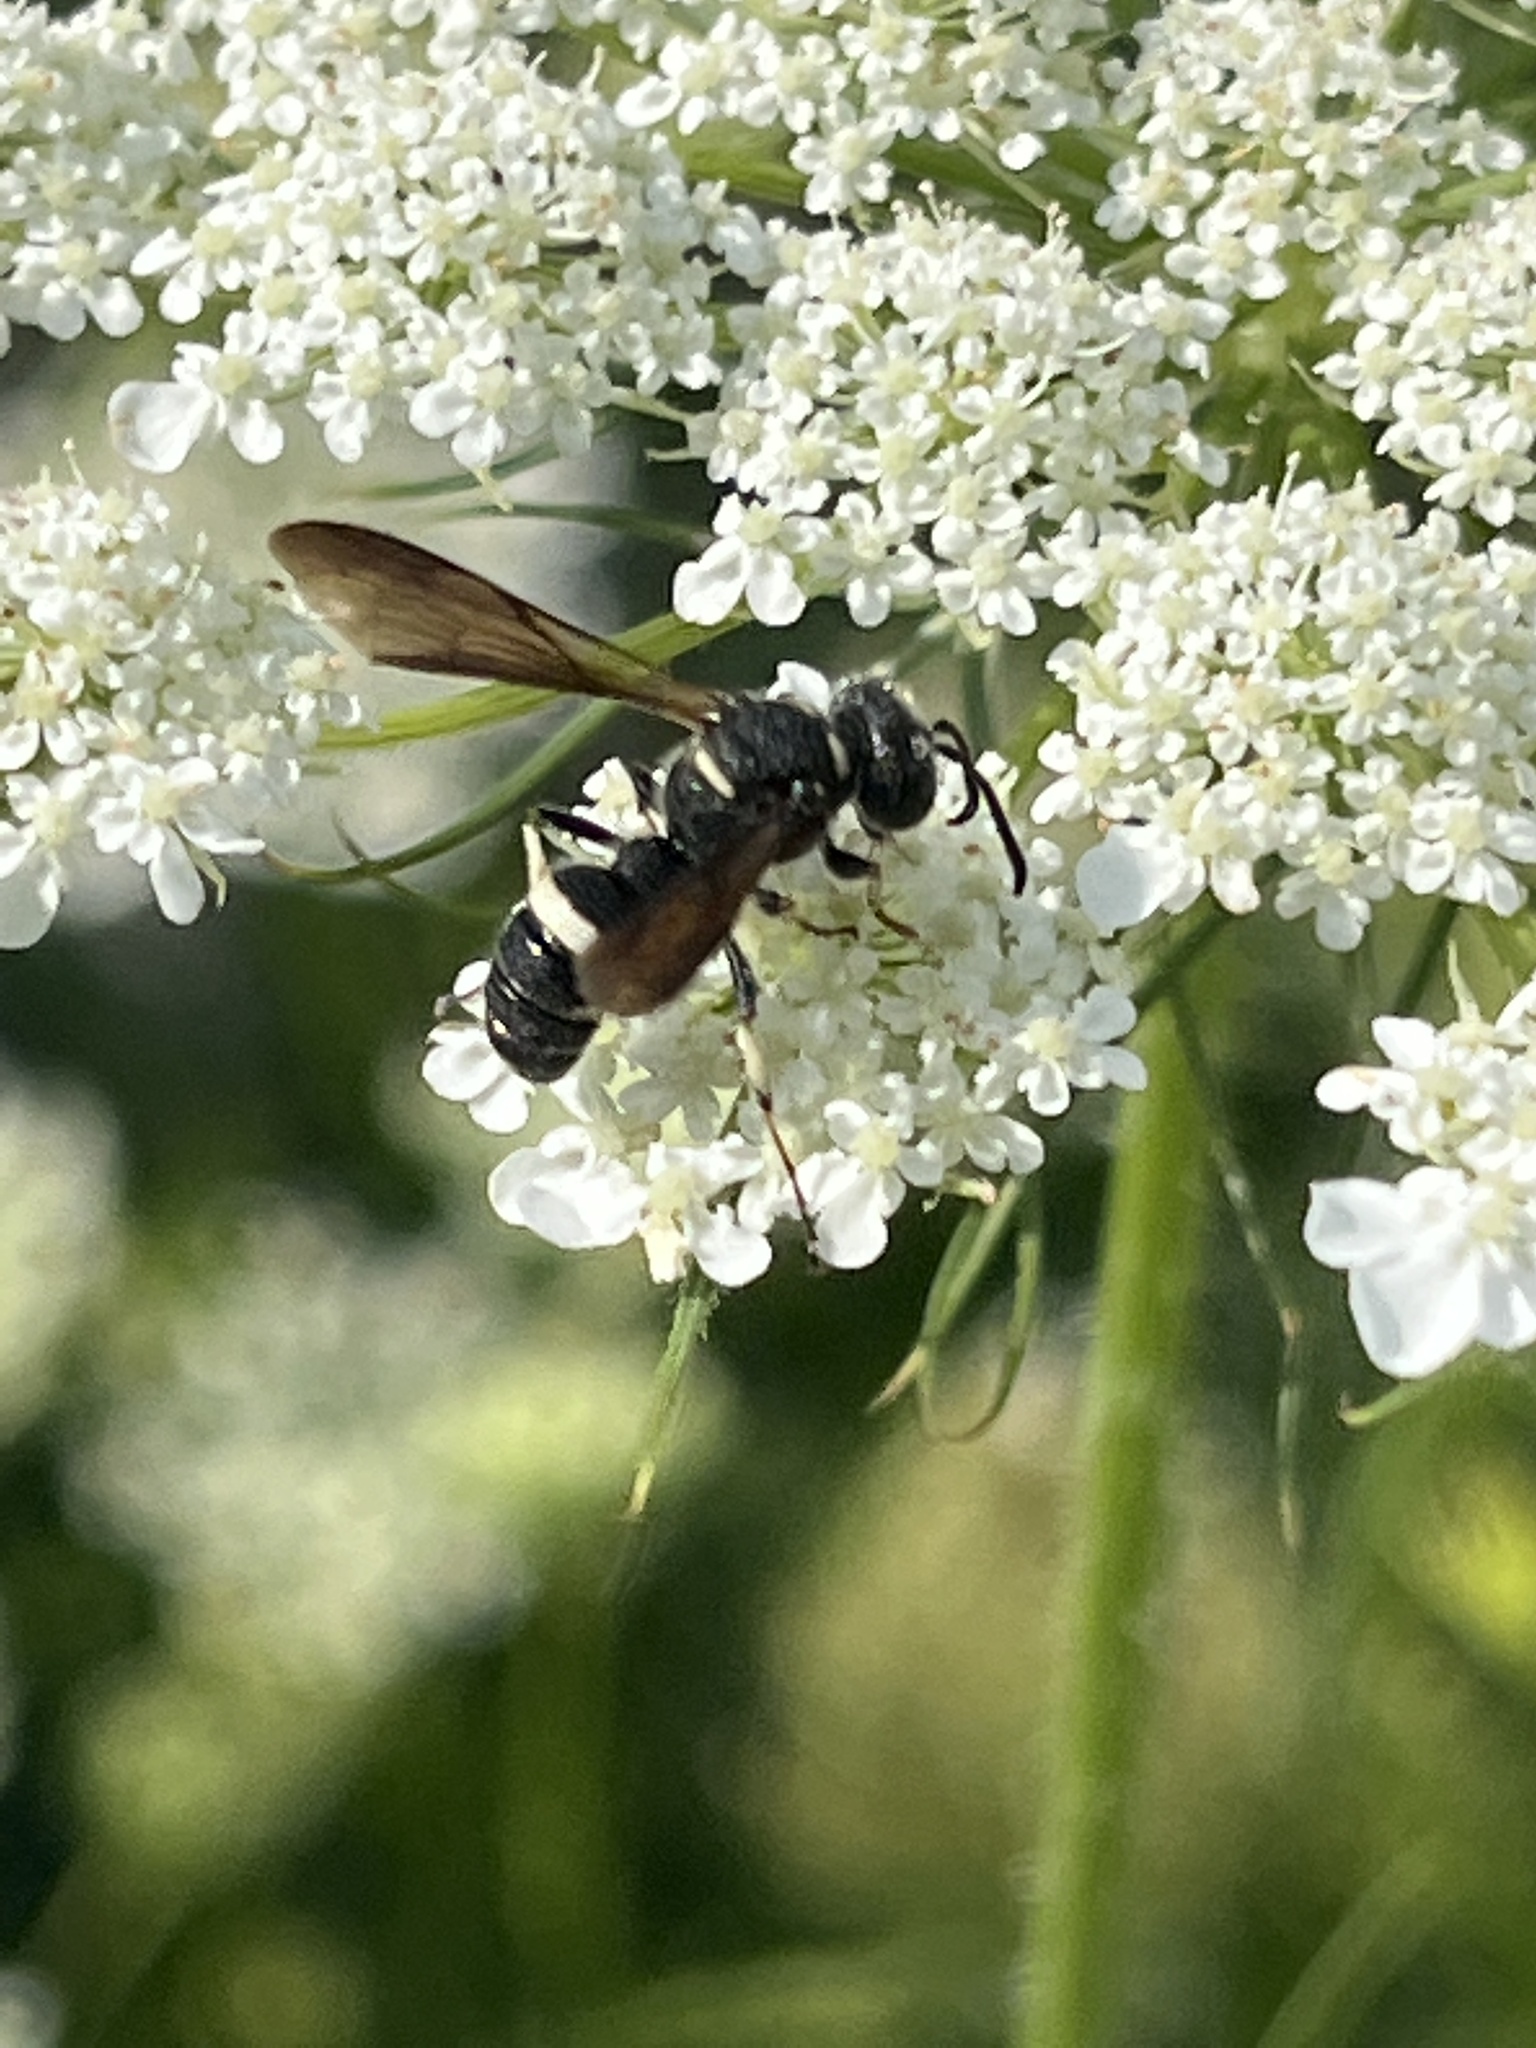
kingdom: Animalia
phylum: Arthropoda
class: Insecta
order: Hymenoptera
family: Crabronidae
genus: Cerceris
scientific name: Cerceris fumipennis
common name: Smokey-winged beetle bandit wasp
